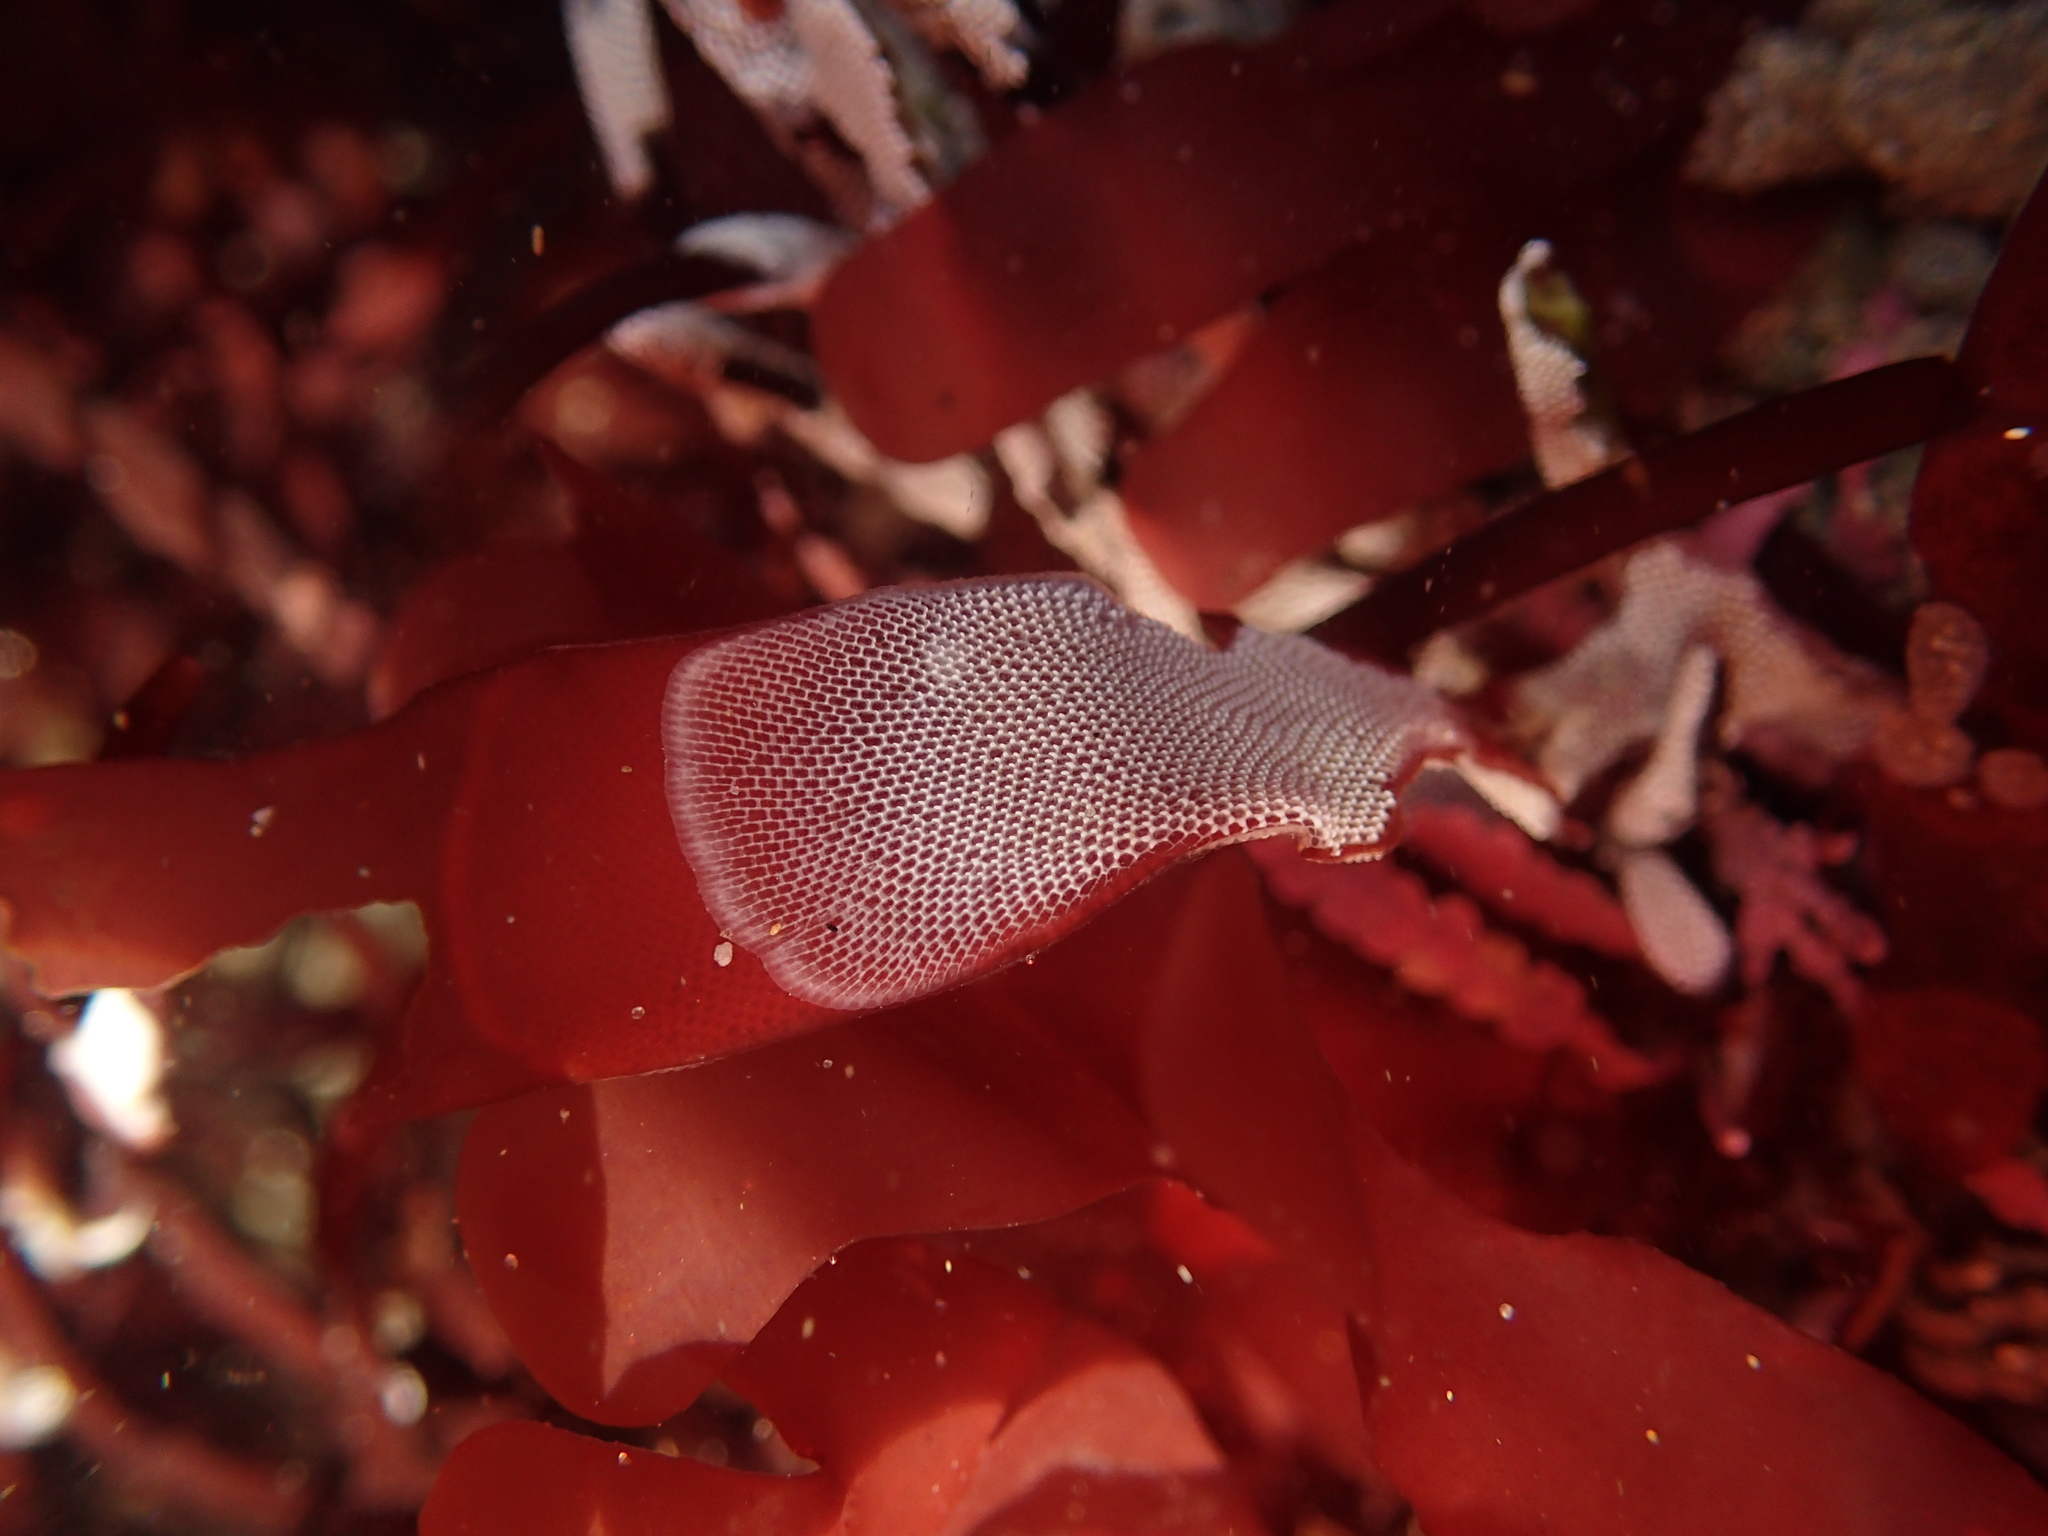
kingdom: Animalia
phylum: Bryozoa
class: Gymnolaemata
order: Cheilostomatida
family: Membraniporidae
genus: Membranipora
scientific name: Membranipora membranacea
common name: Sea mat
